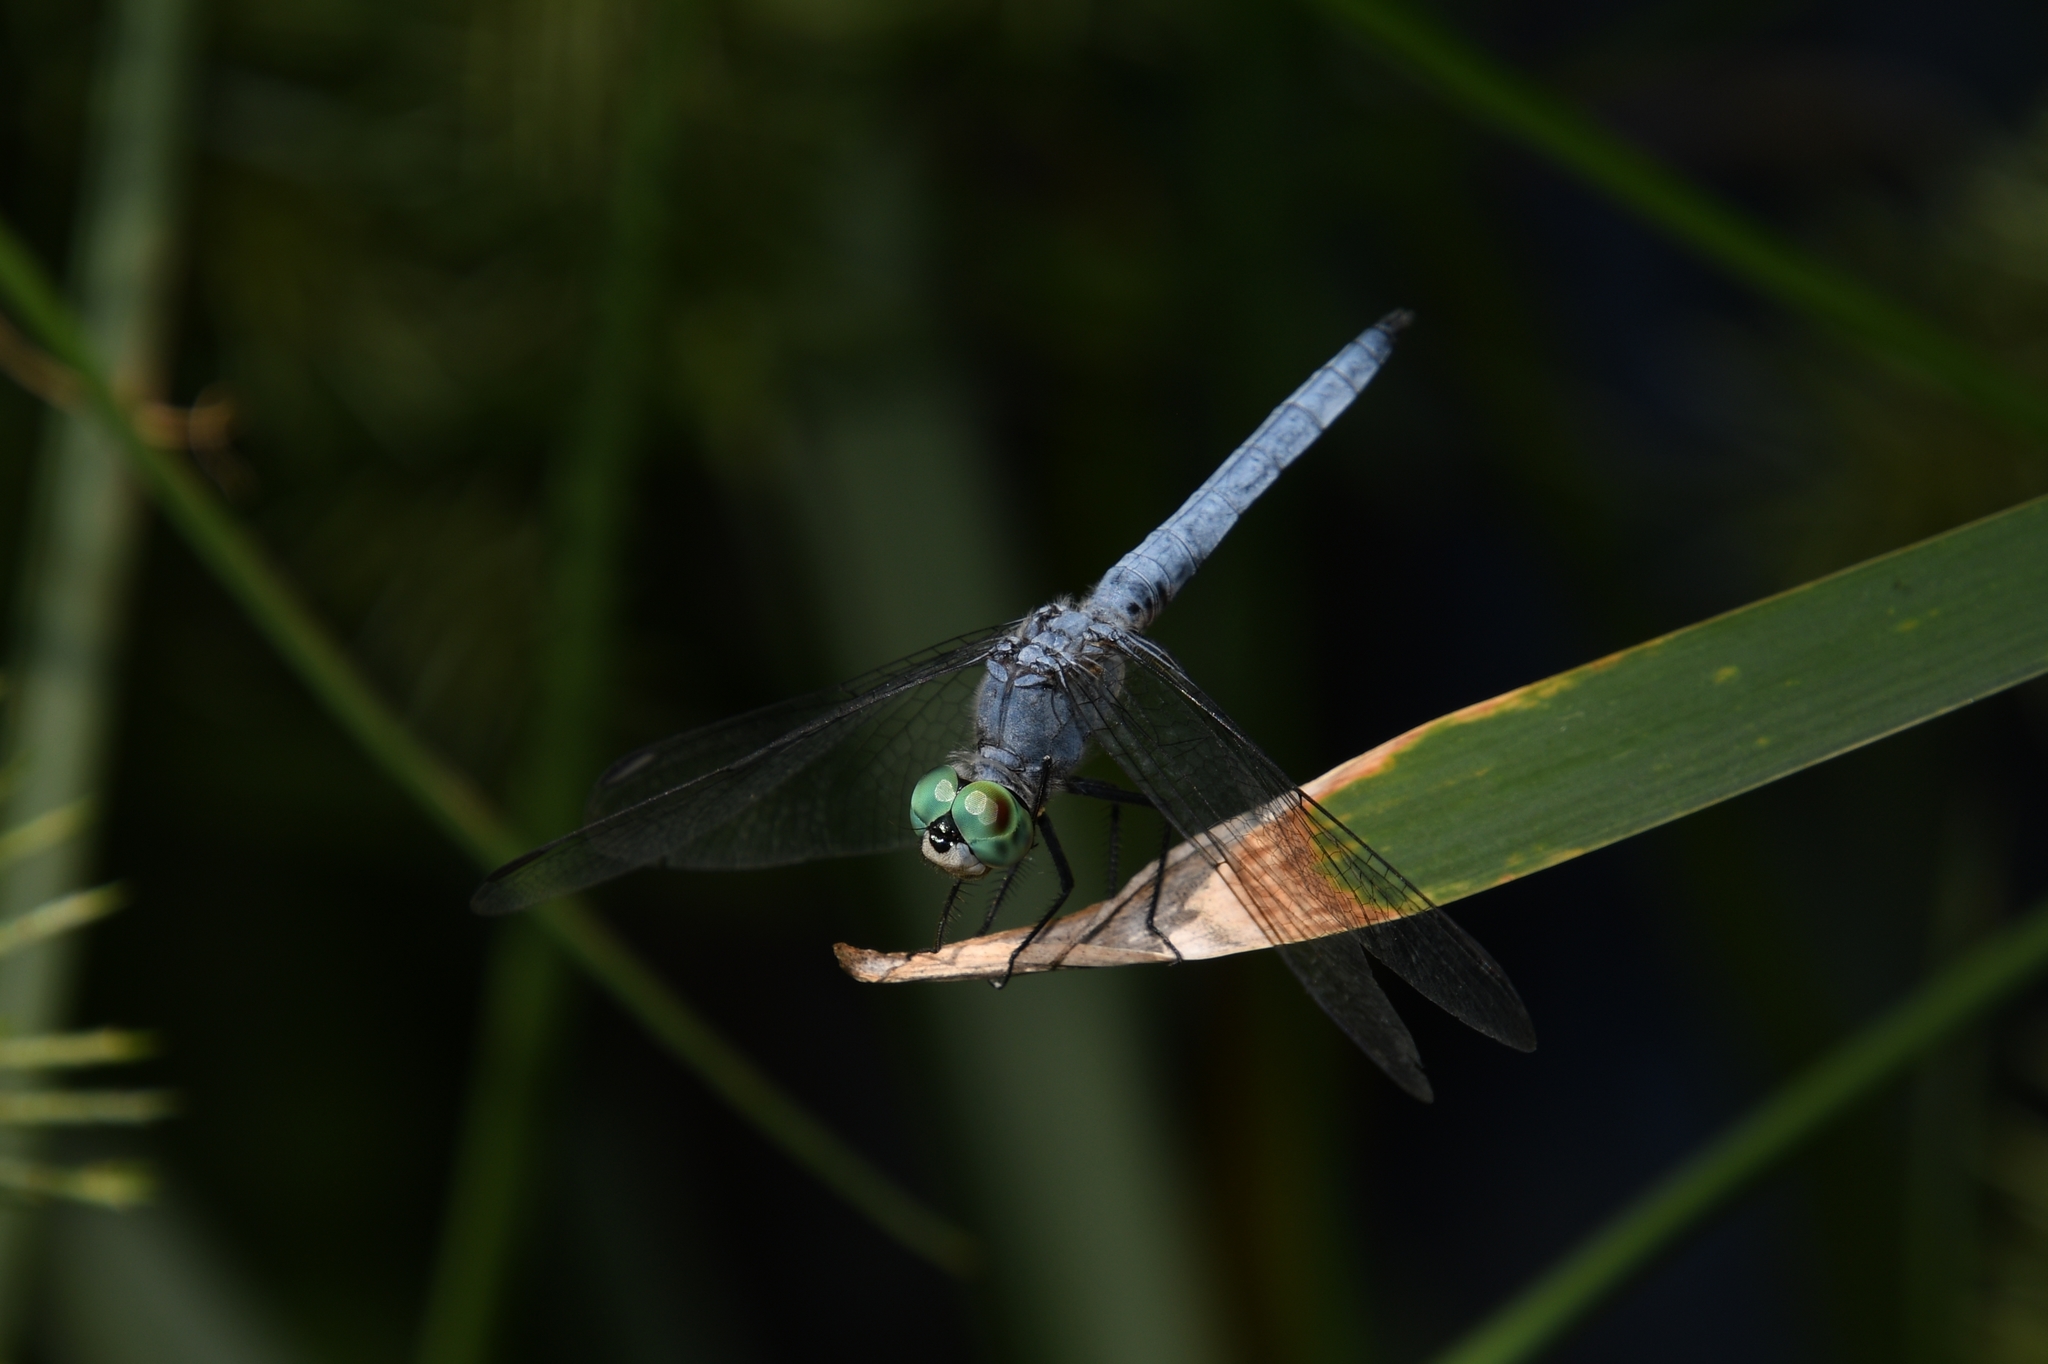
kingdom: Animalia
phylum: Arthropoda
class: Insecta
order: Odonata
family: Libellulidae
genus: Pachydiplax
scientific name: Pachydiplax longipennis
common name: Blue dasher
